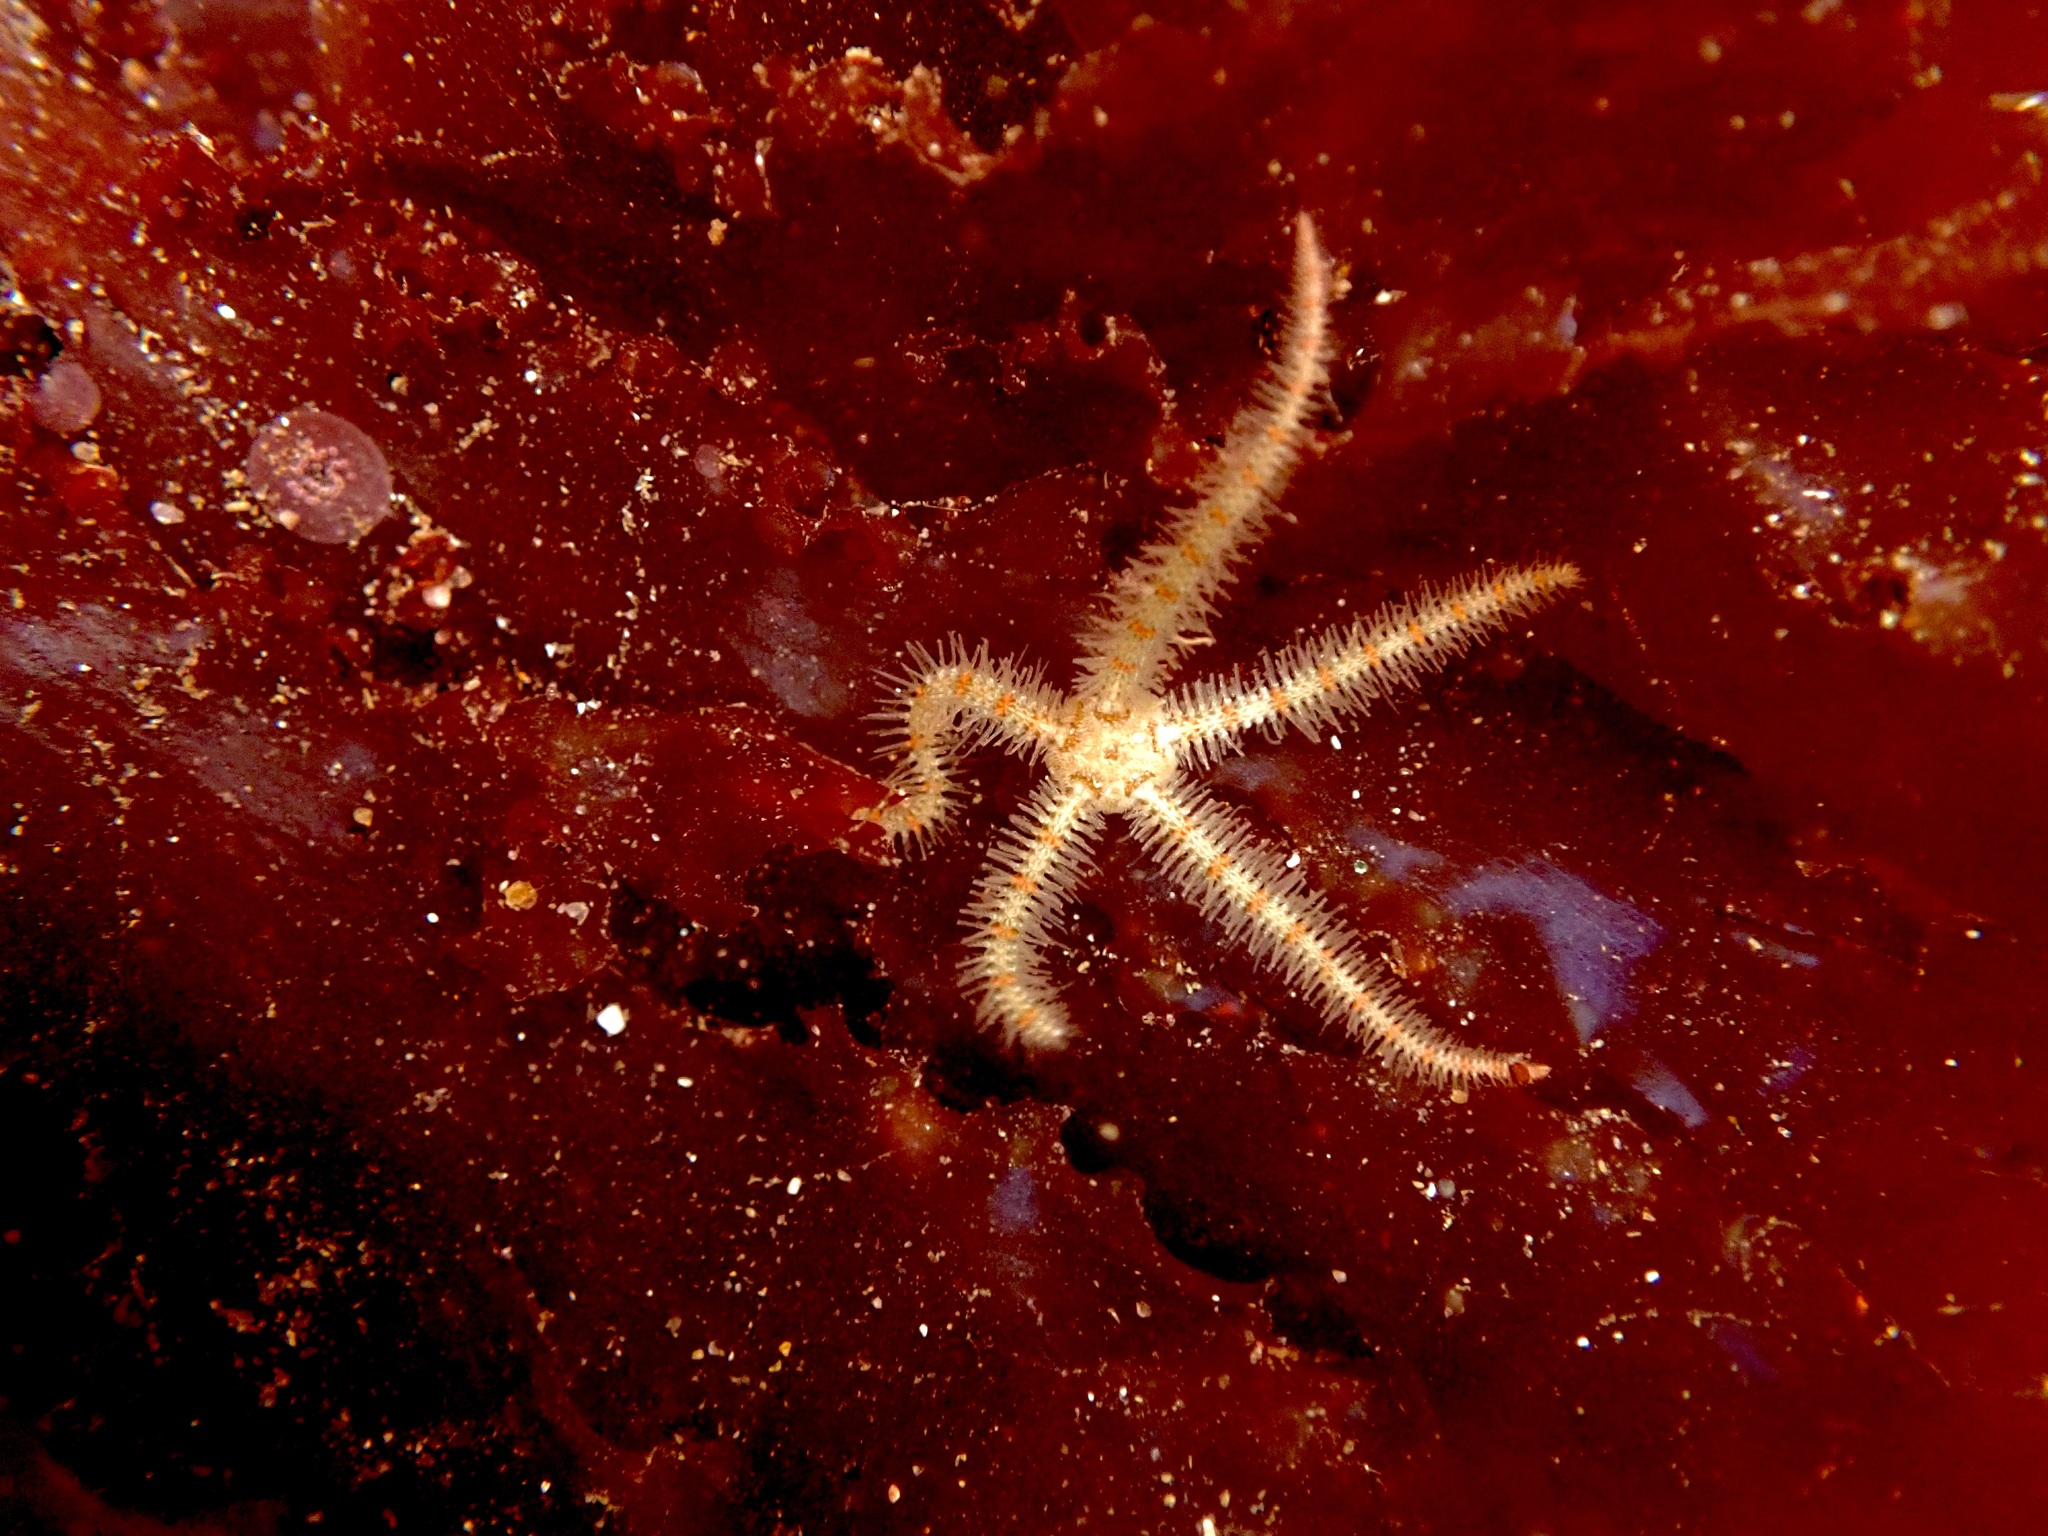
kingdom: Animalia
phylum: Echinodermata
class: Ophiuroidea
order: Amphilepidida
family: Ophiotrichidae
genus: Ophiothrix
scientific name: Ophiothrix spiculata
